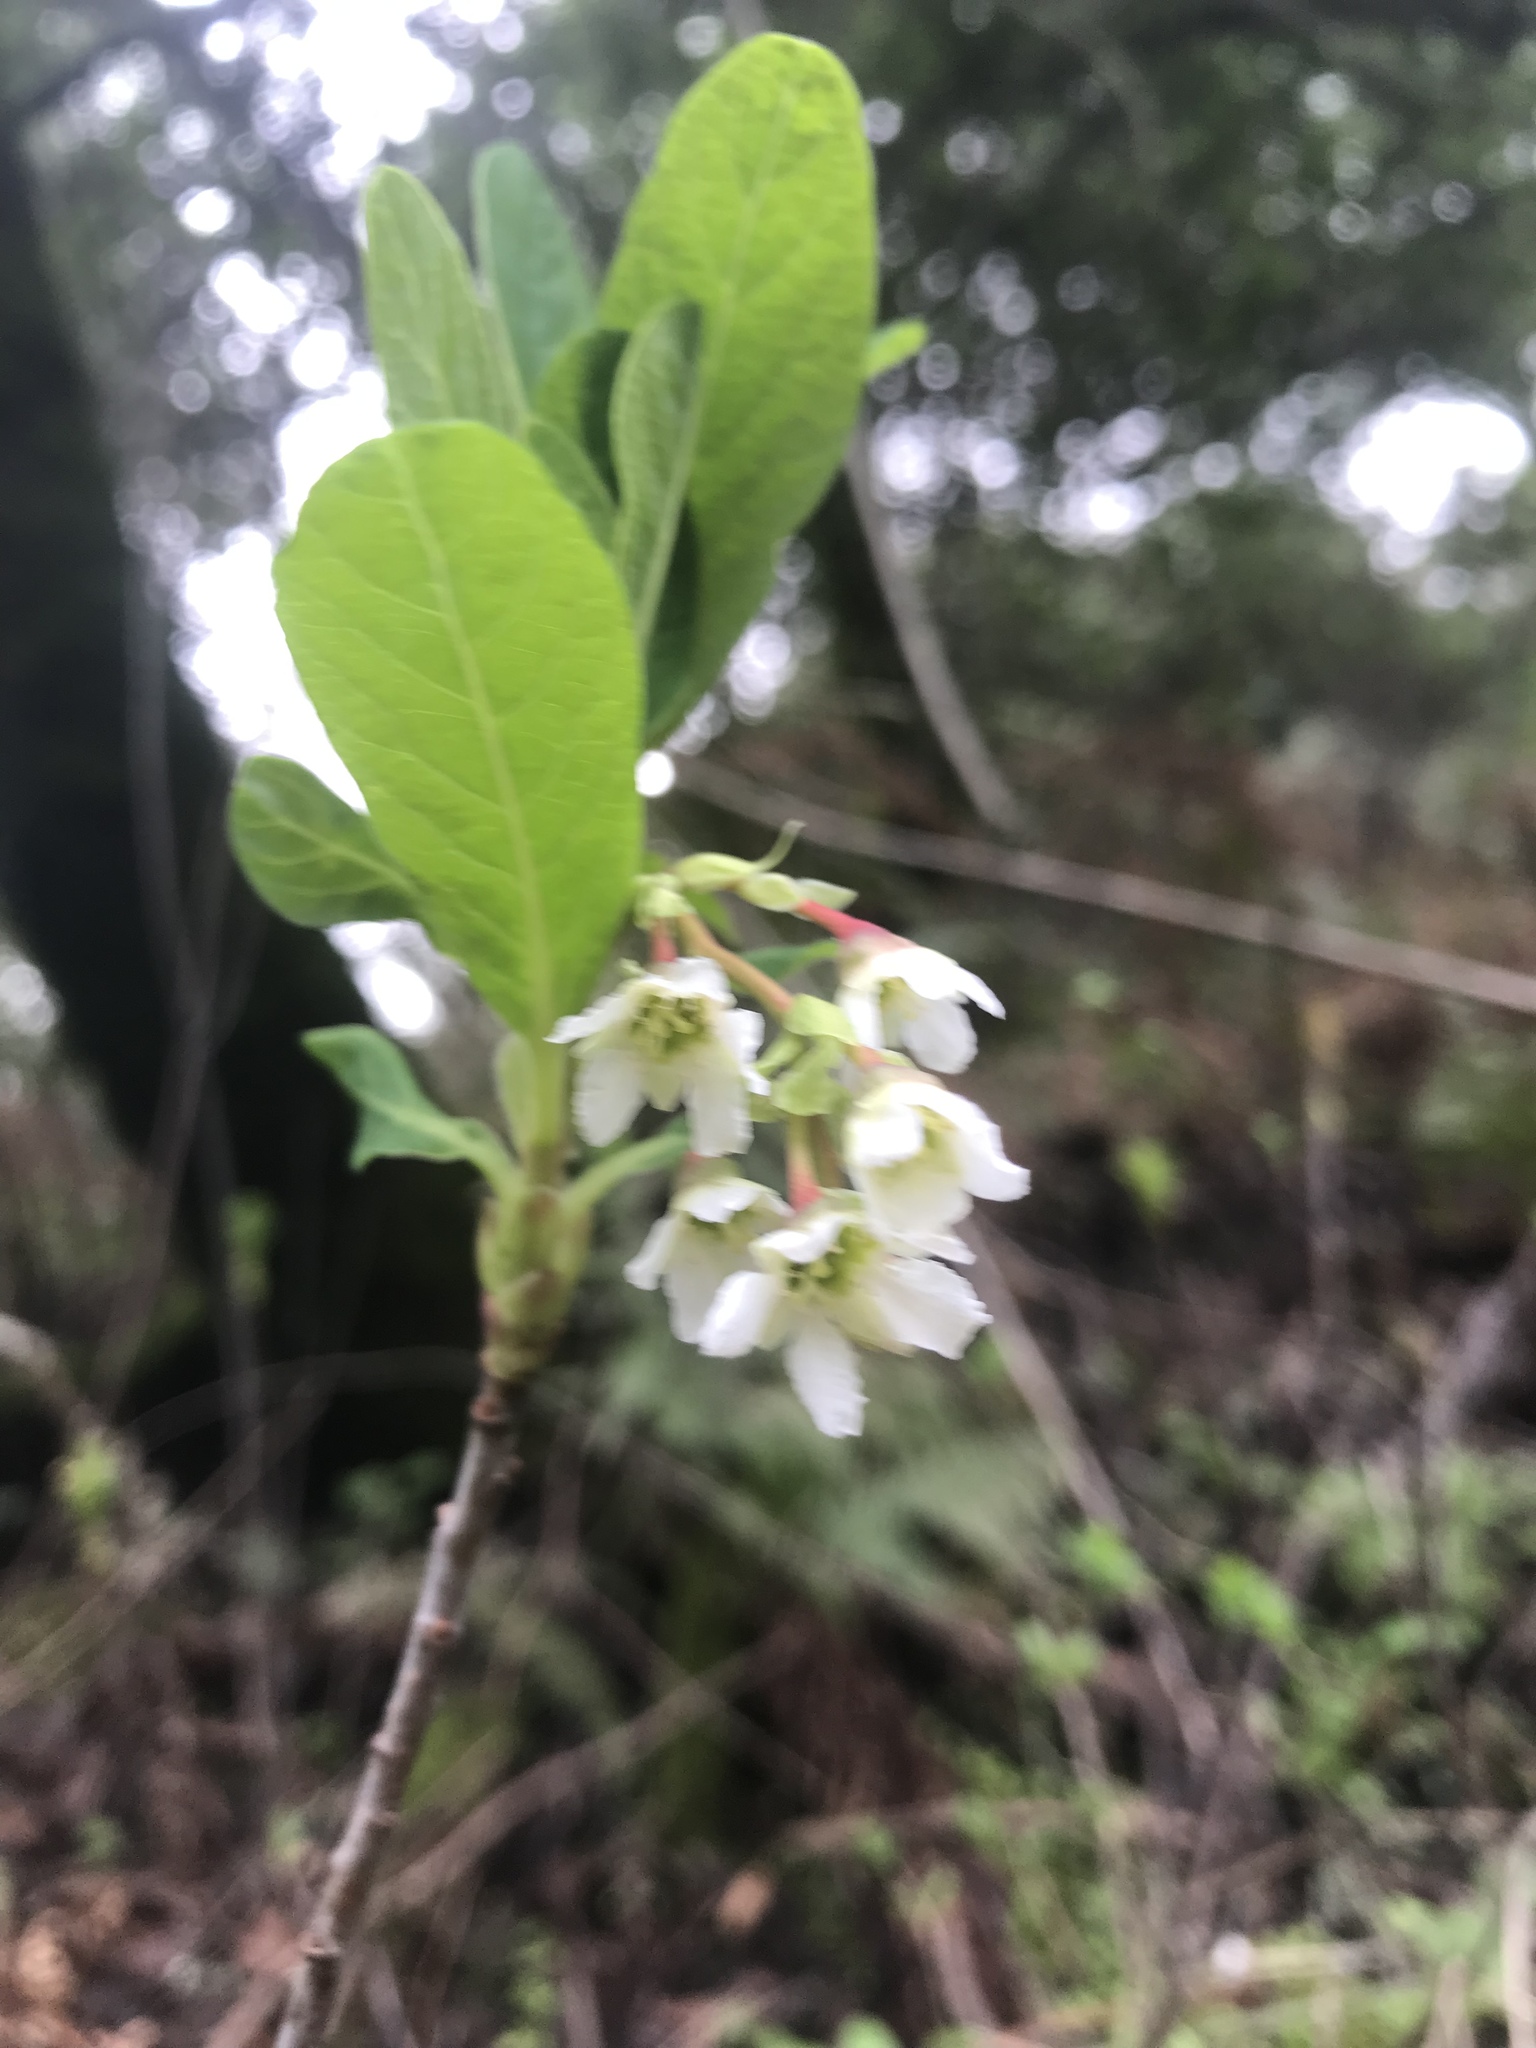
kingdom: Plantae
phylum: Tracheophyta
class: Magnoliopsida
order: Rosales
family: Rosaceae
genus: Oemleria
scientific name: Oemleria cerasiformis
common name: Osoberry
